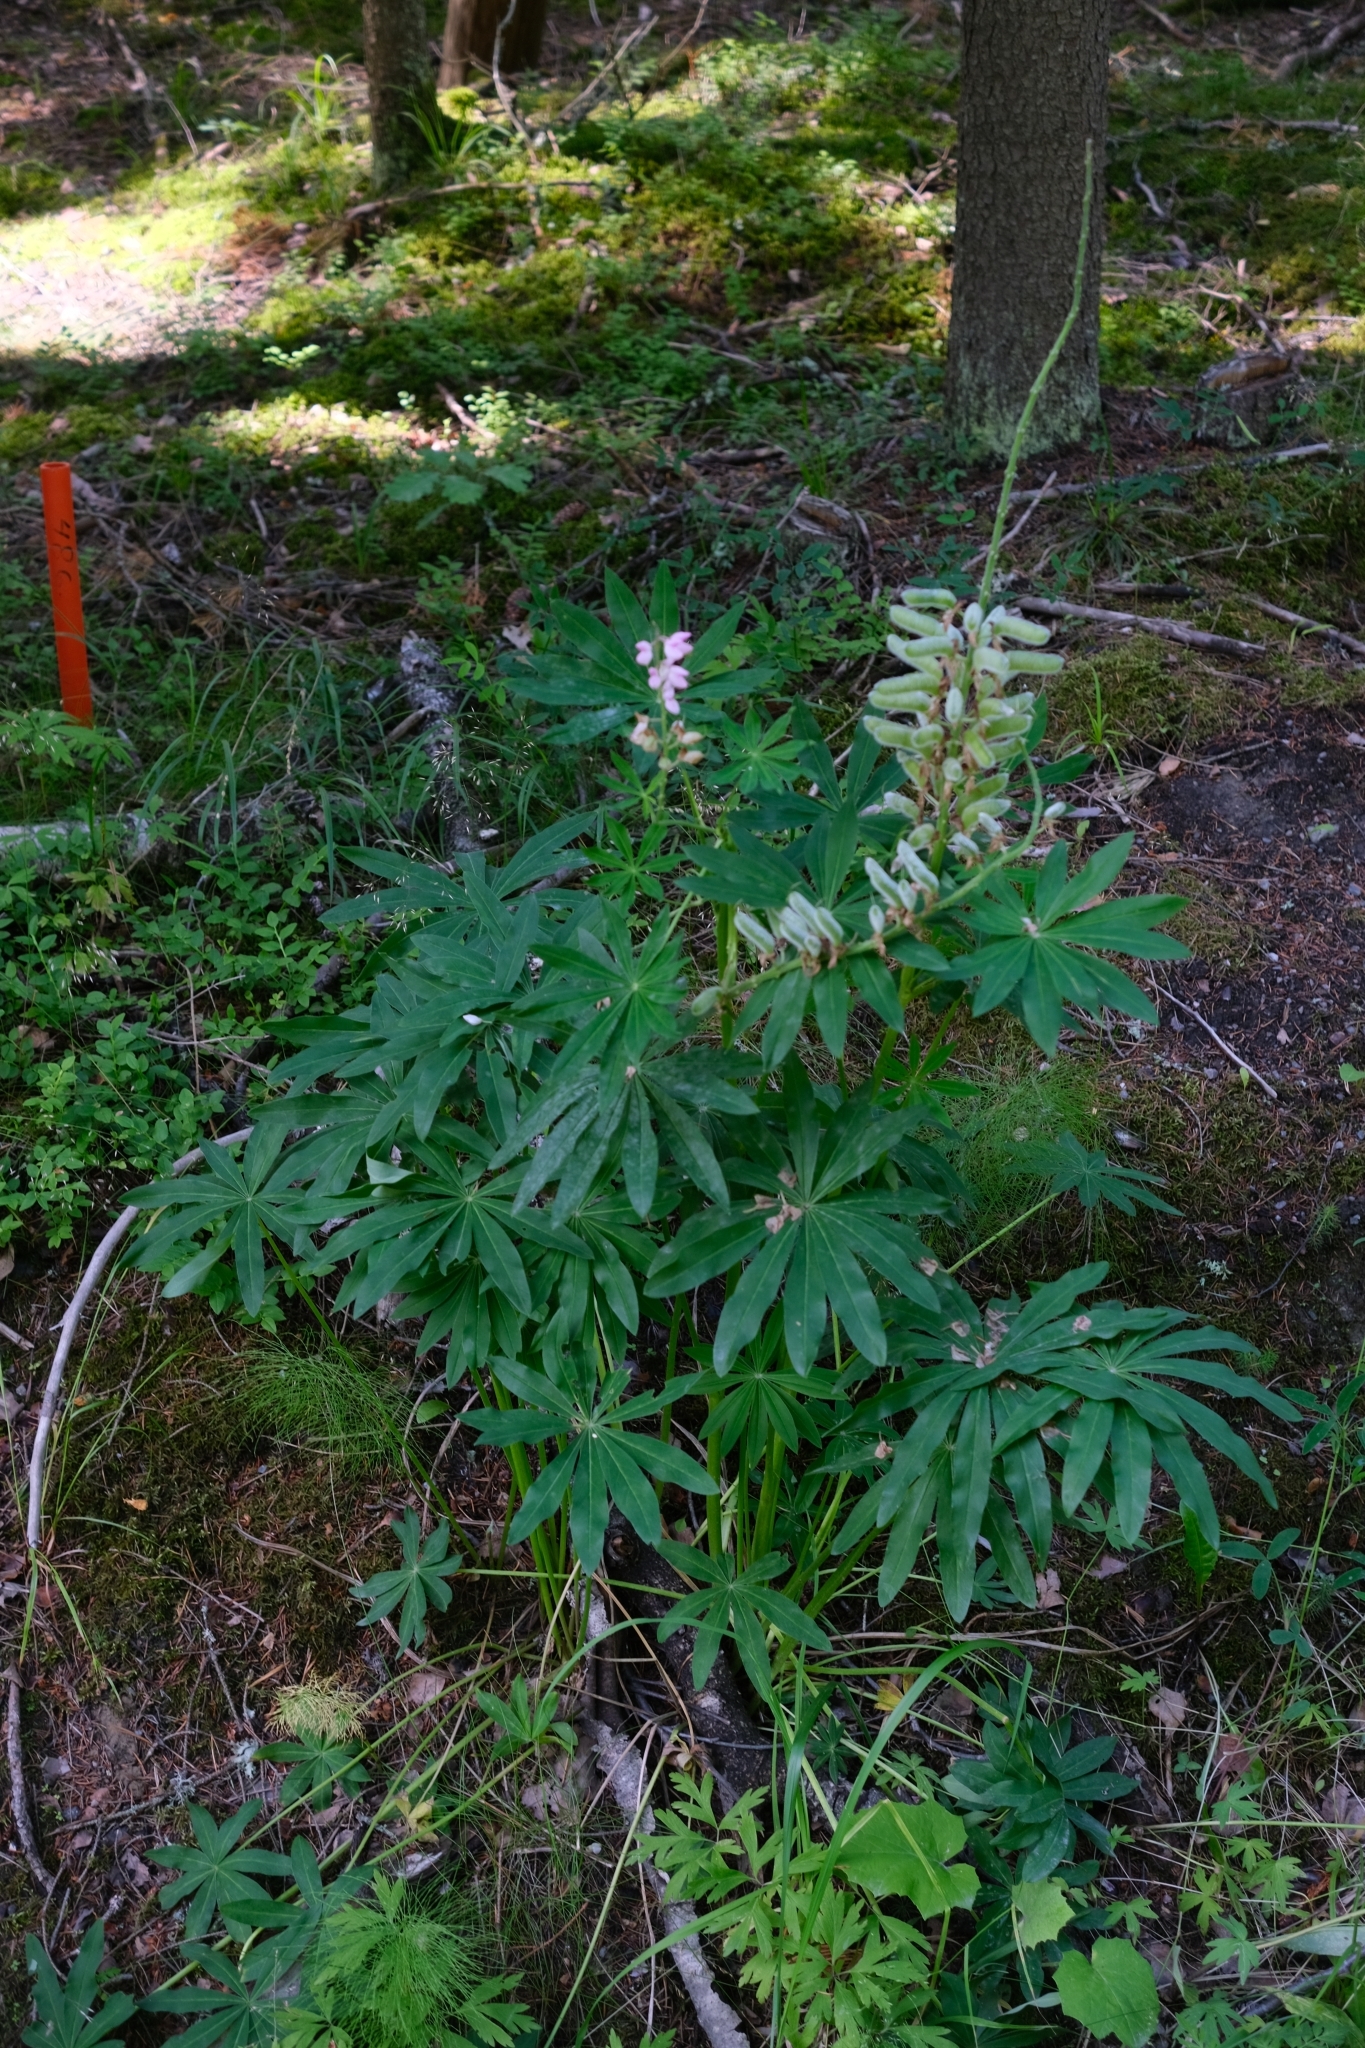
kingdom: Plantae
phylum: Tracheophyta
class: Magnoliopsida
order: Fabales
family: Fabaceae
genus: Lupinus
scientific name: Lupinus polyphyllus
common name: Garden lupin
